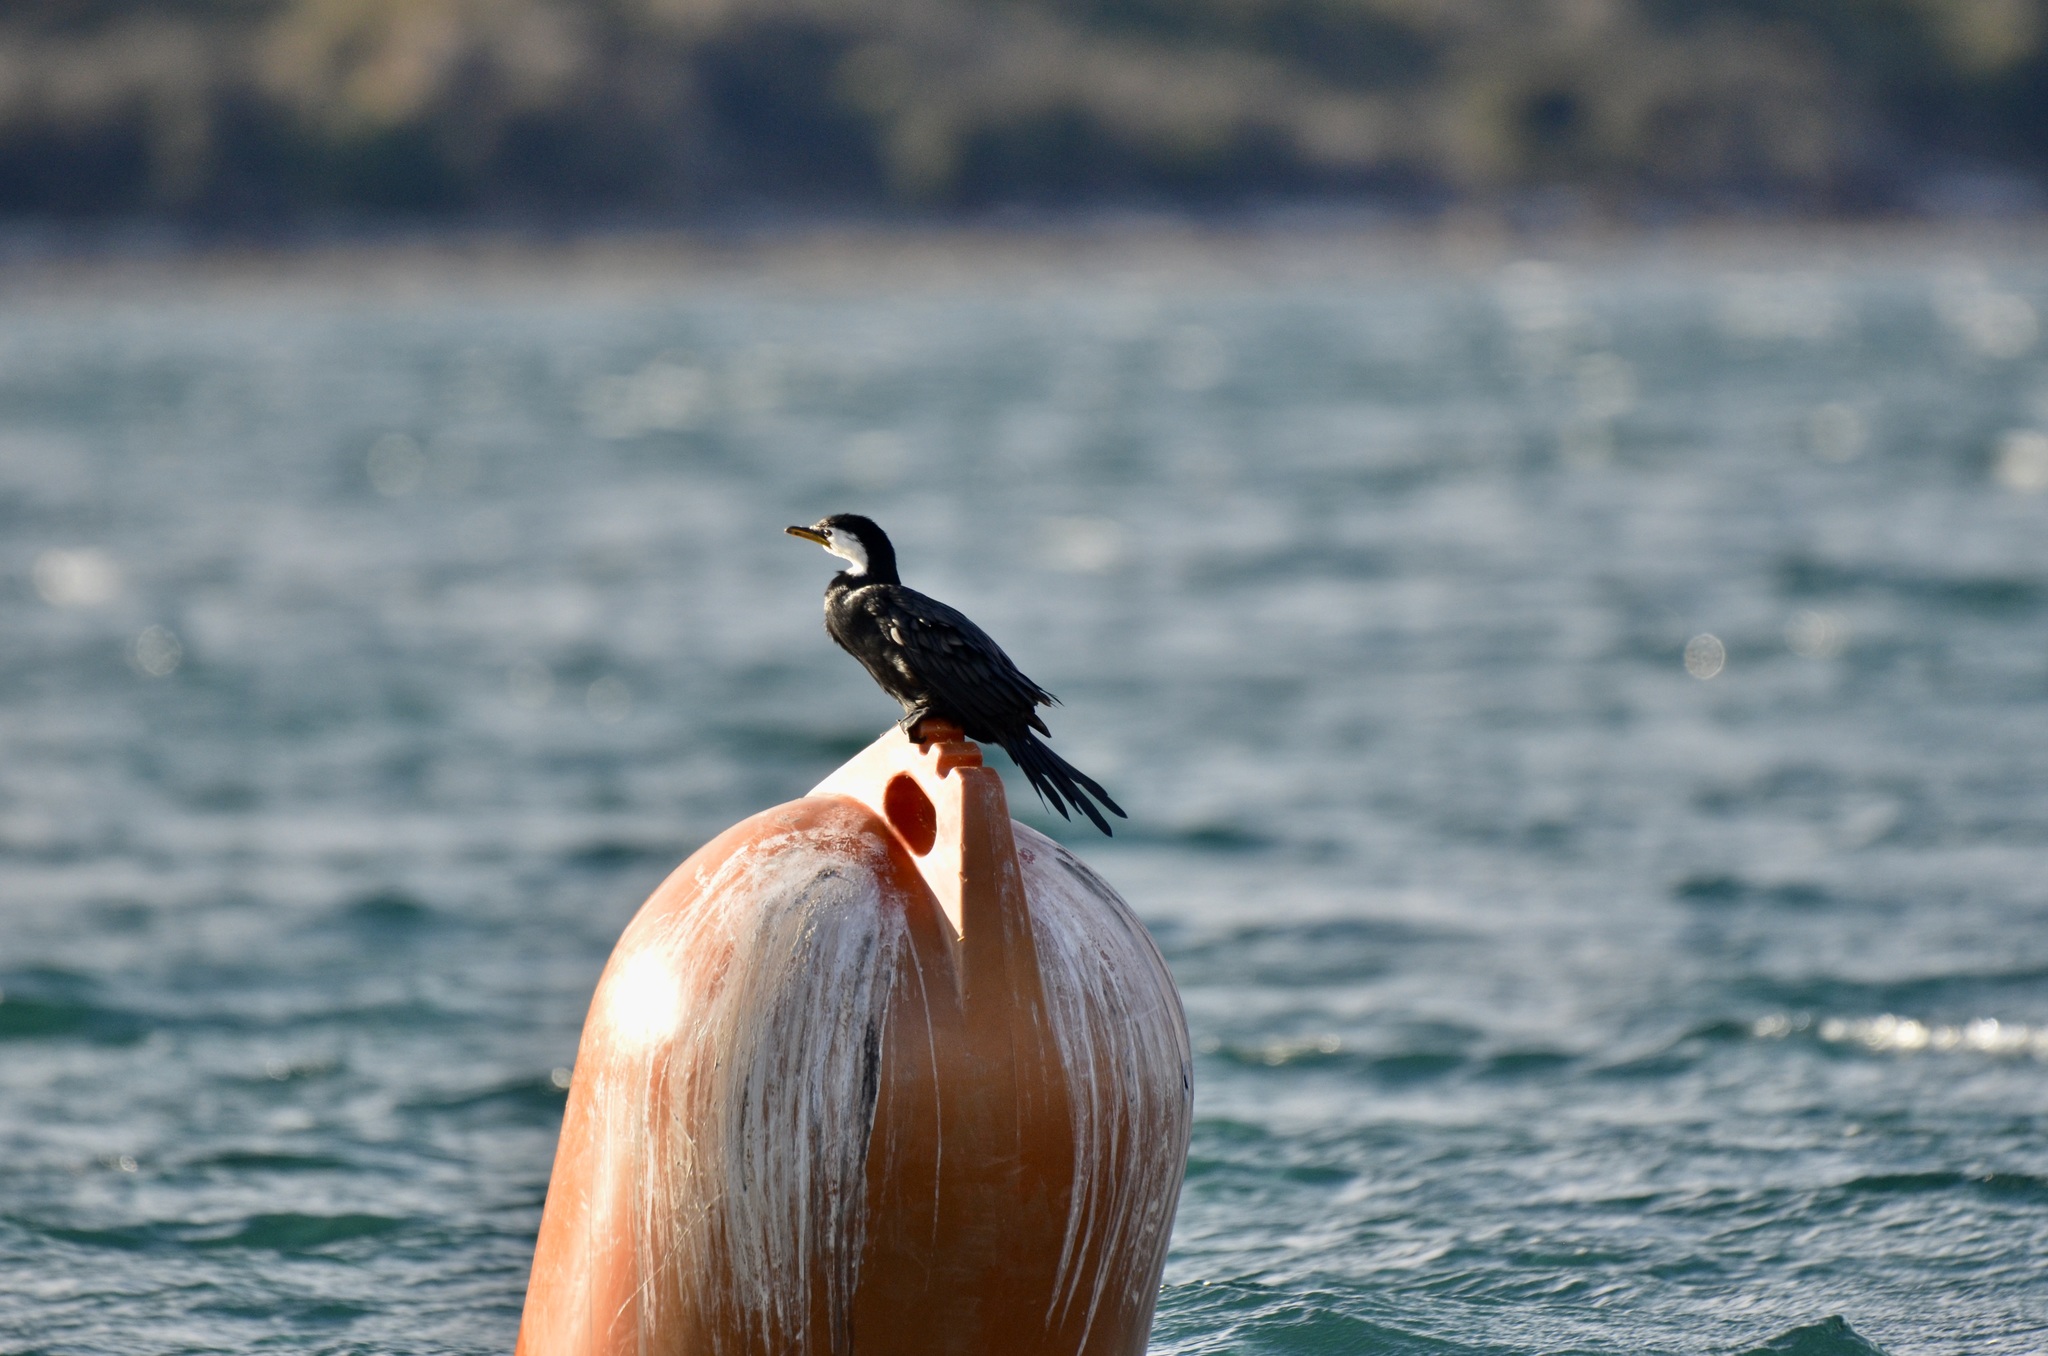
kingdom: Animalia
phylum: Chordata
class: Aves
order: Suliformes
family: Phalacrocoracidae
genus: Microcarbo
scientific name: Microcarbo melanoleucos
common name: Little pied cormorant
